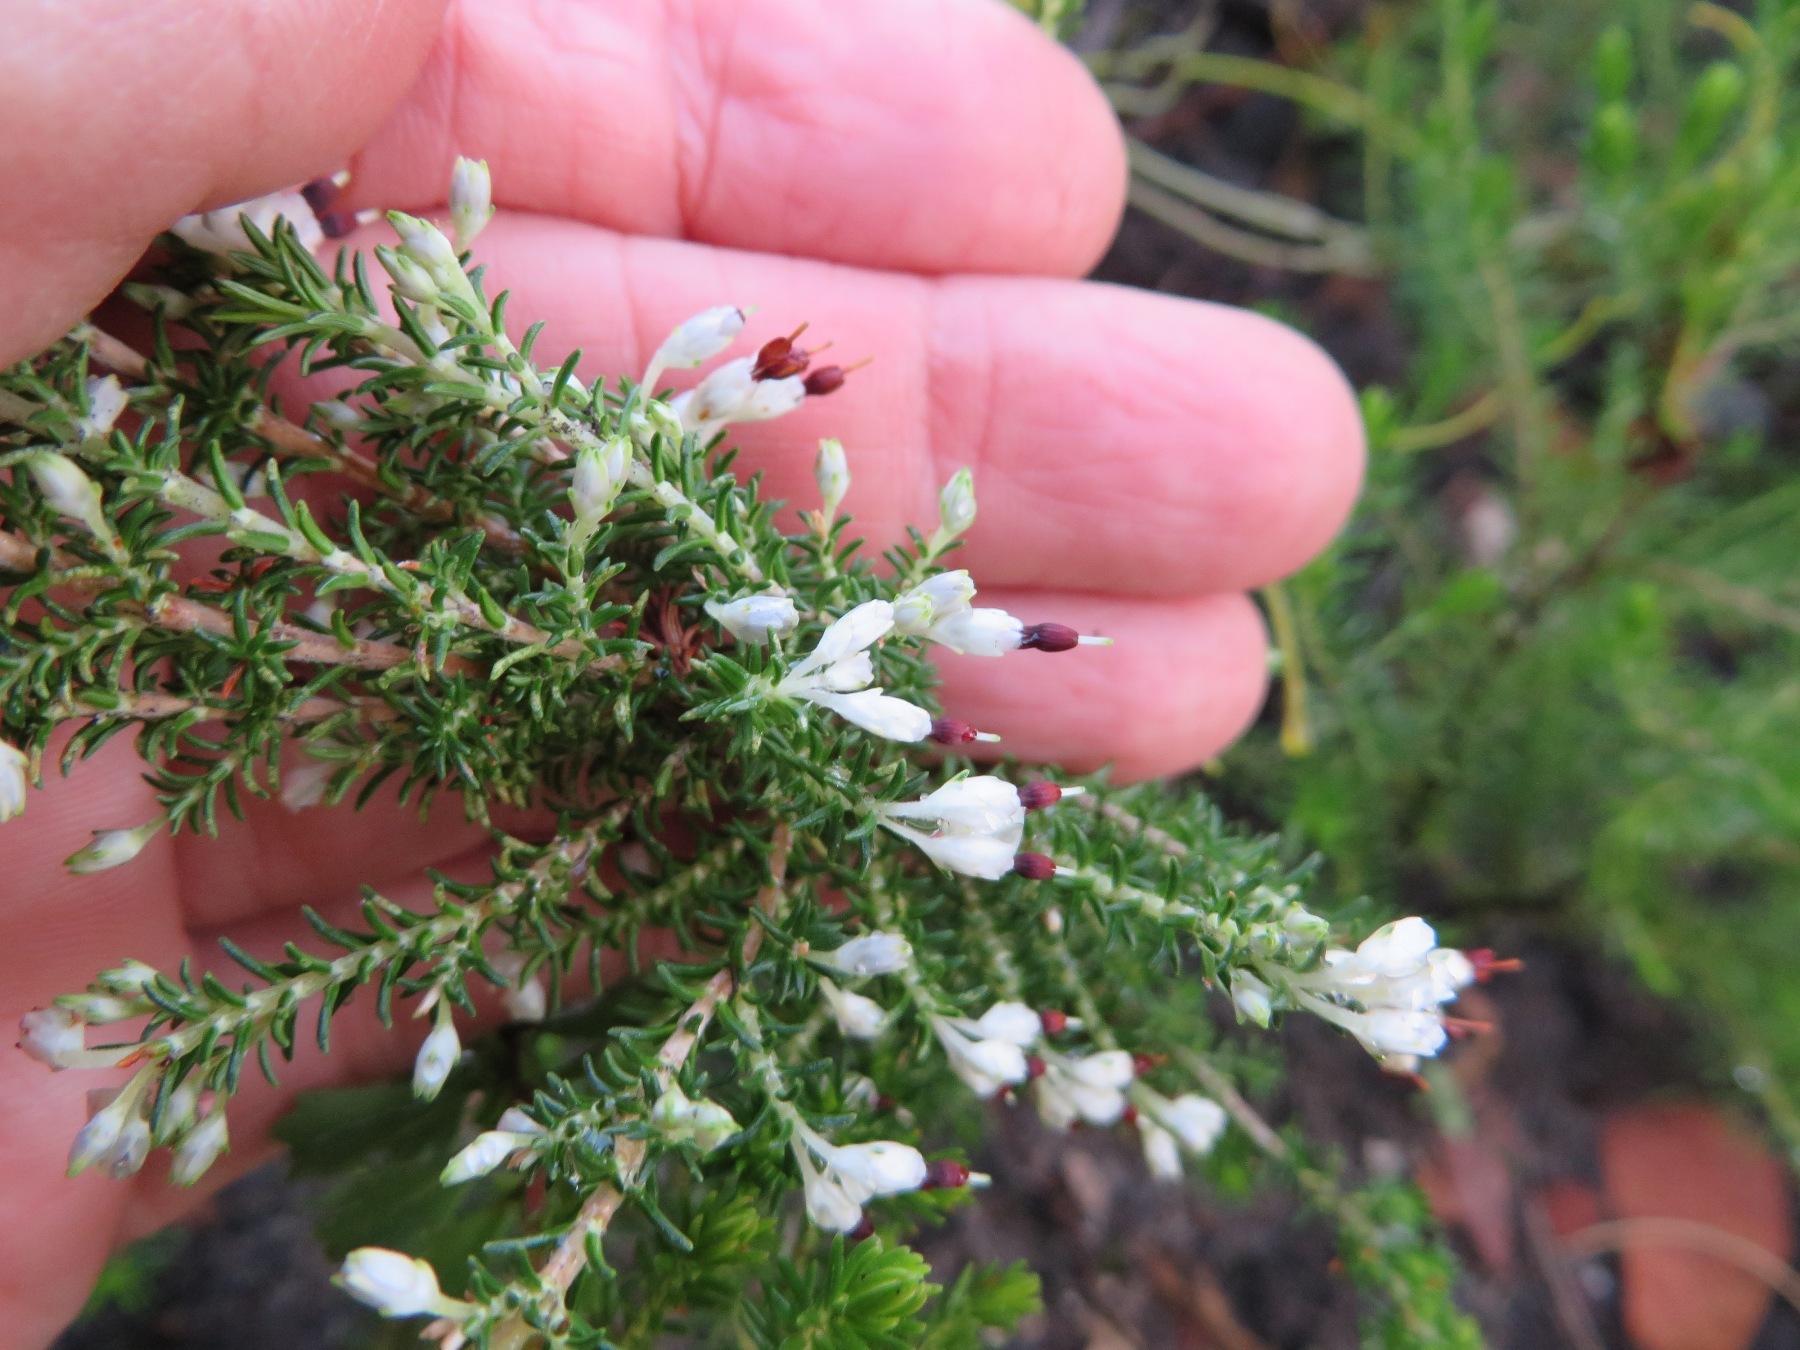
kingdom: Plantae
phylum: Tracheophyta
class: Magnoliopsida
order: Ericales
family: Ericaceae
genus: Erica
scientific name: Erica imbricata
